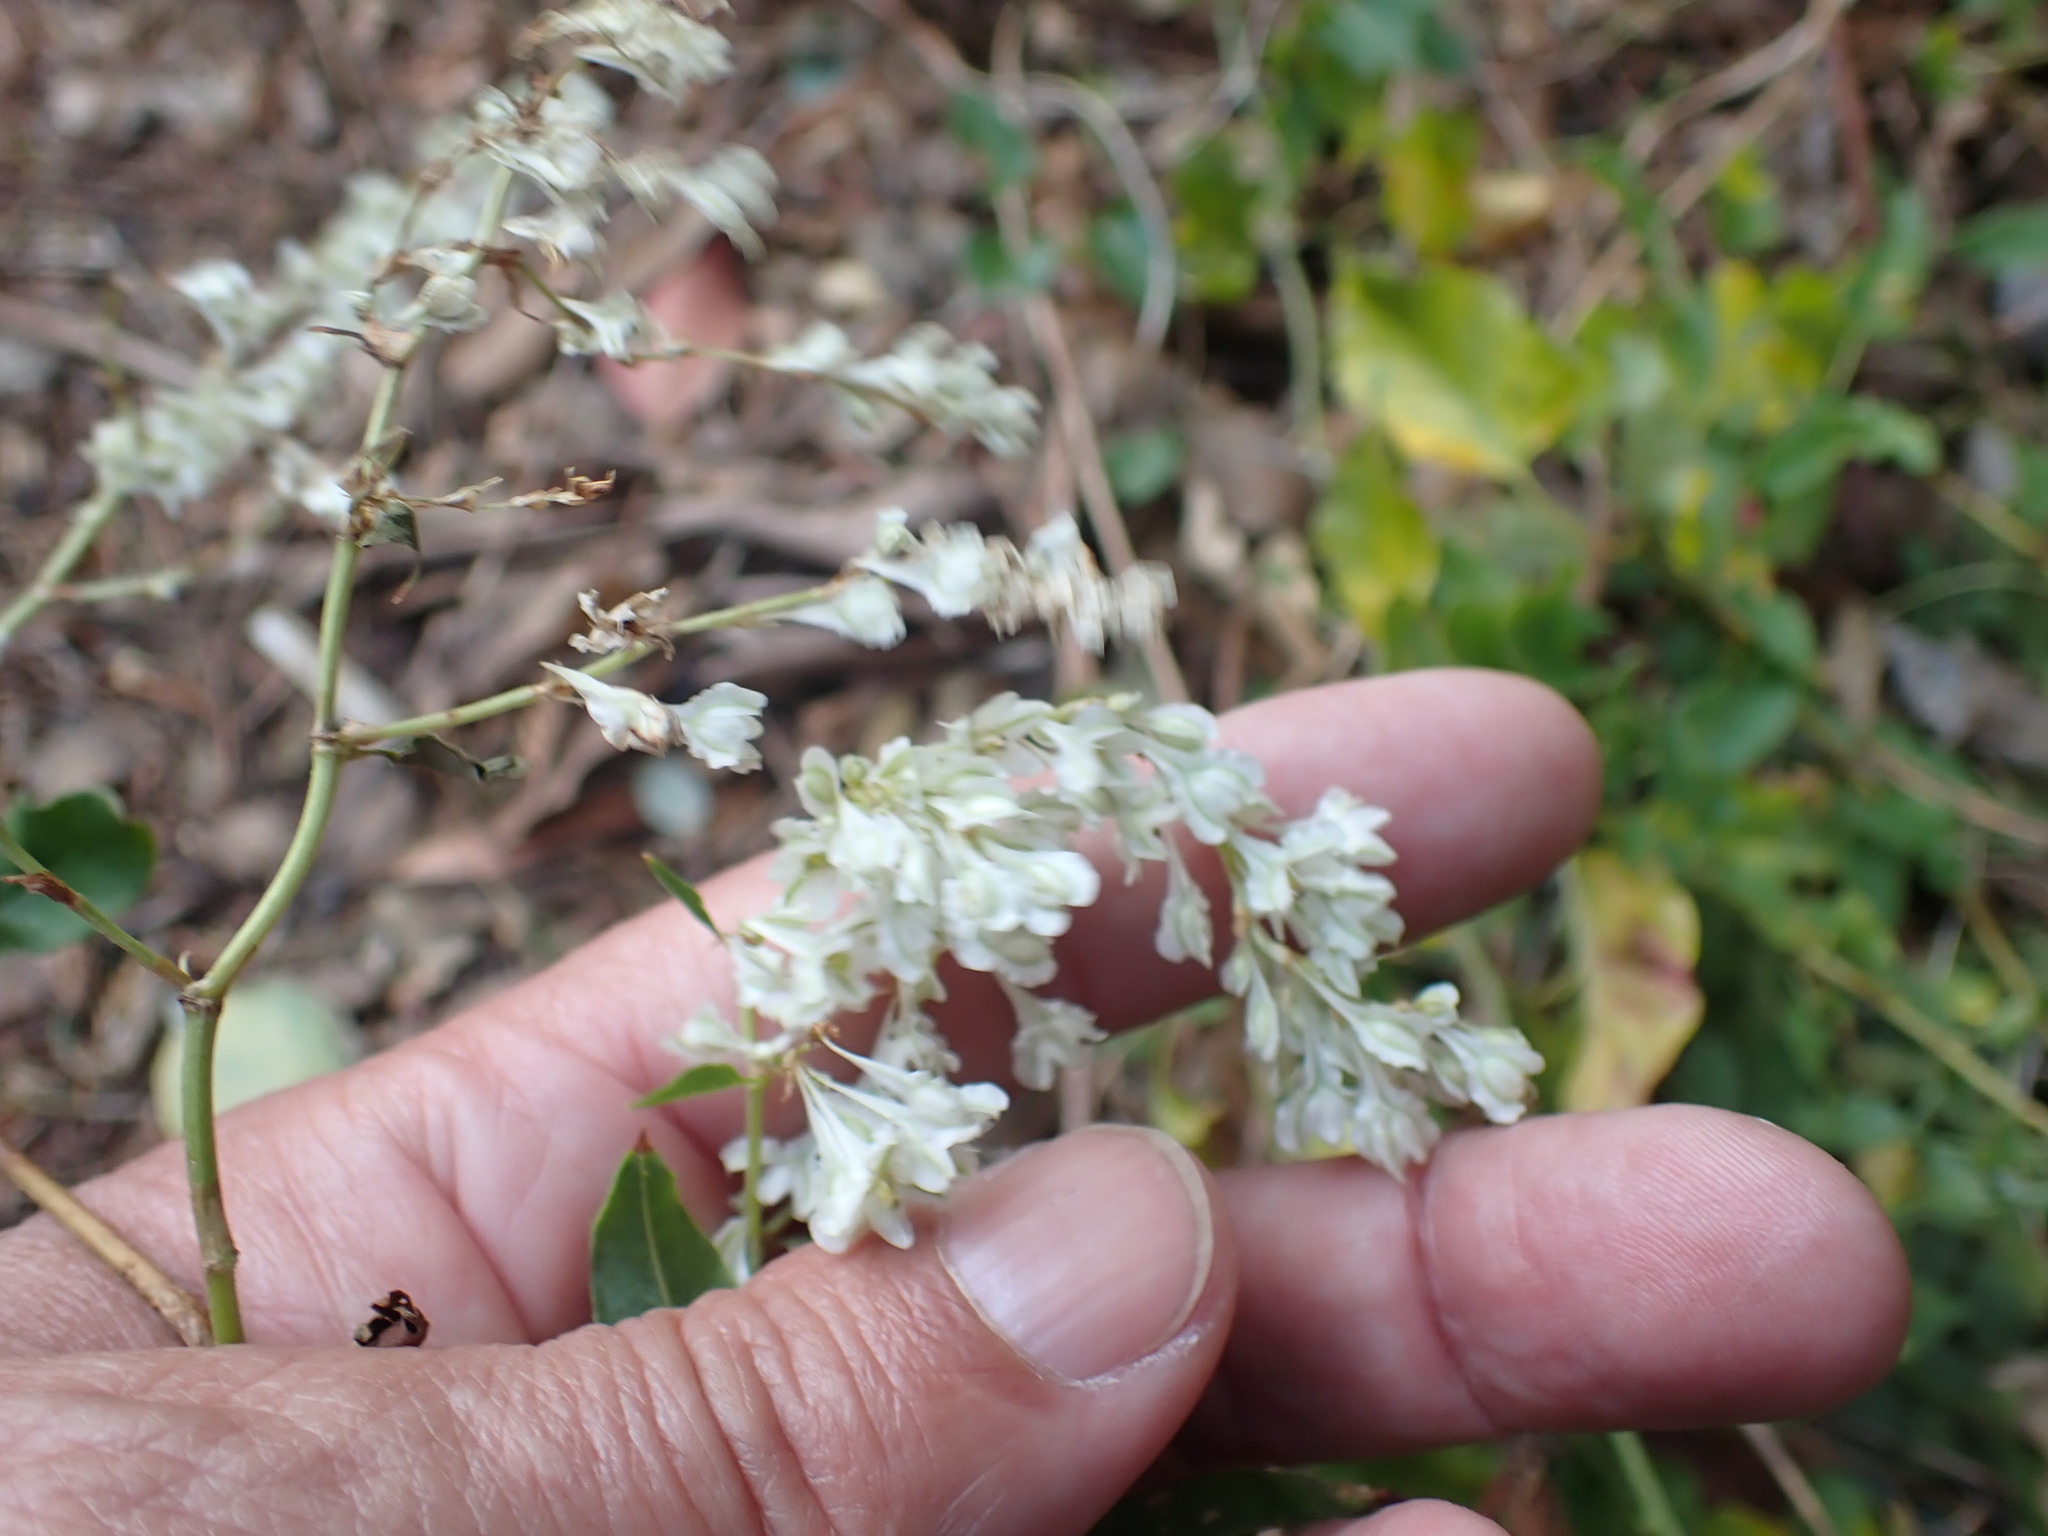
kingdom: Plantae
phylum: Tracheophyta
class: Magnoliopsida
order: Caryophyllales
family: Polygonaceae
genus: Fallopia
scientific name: Fallopia baldschuanica
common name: Russian-vine
